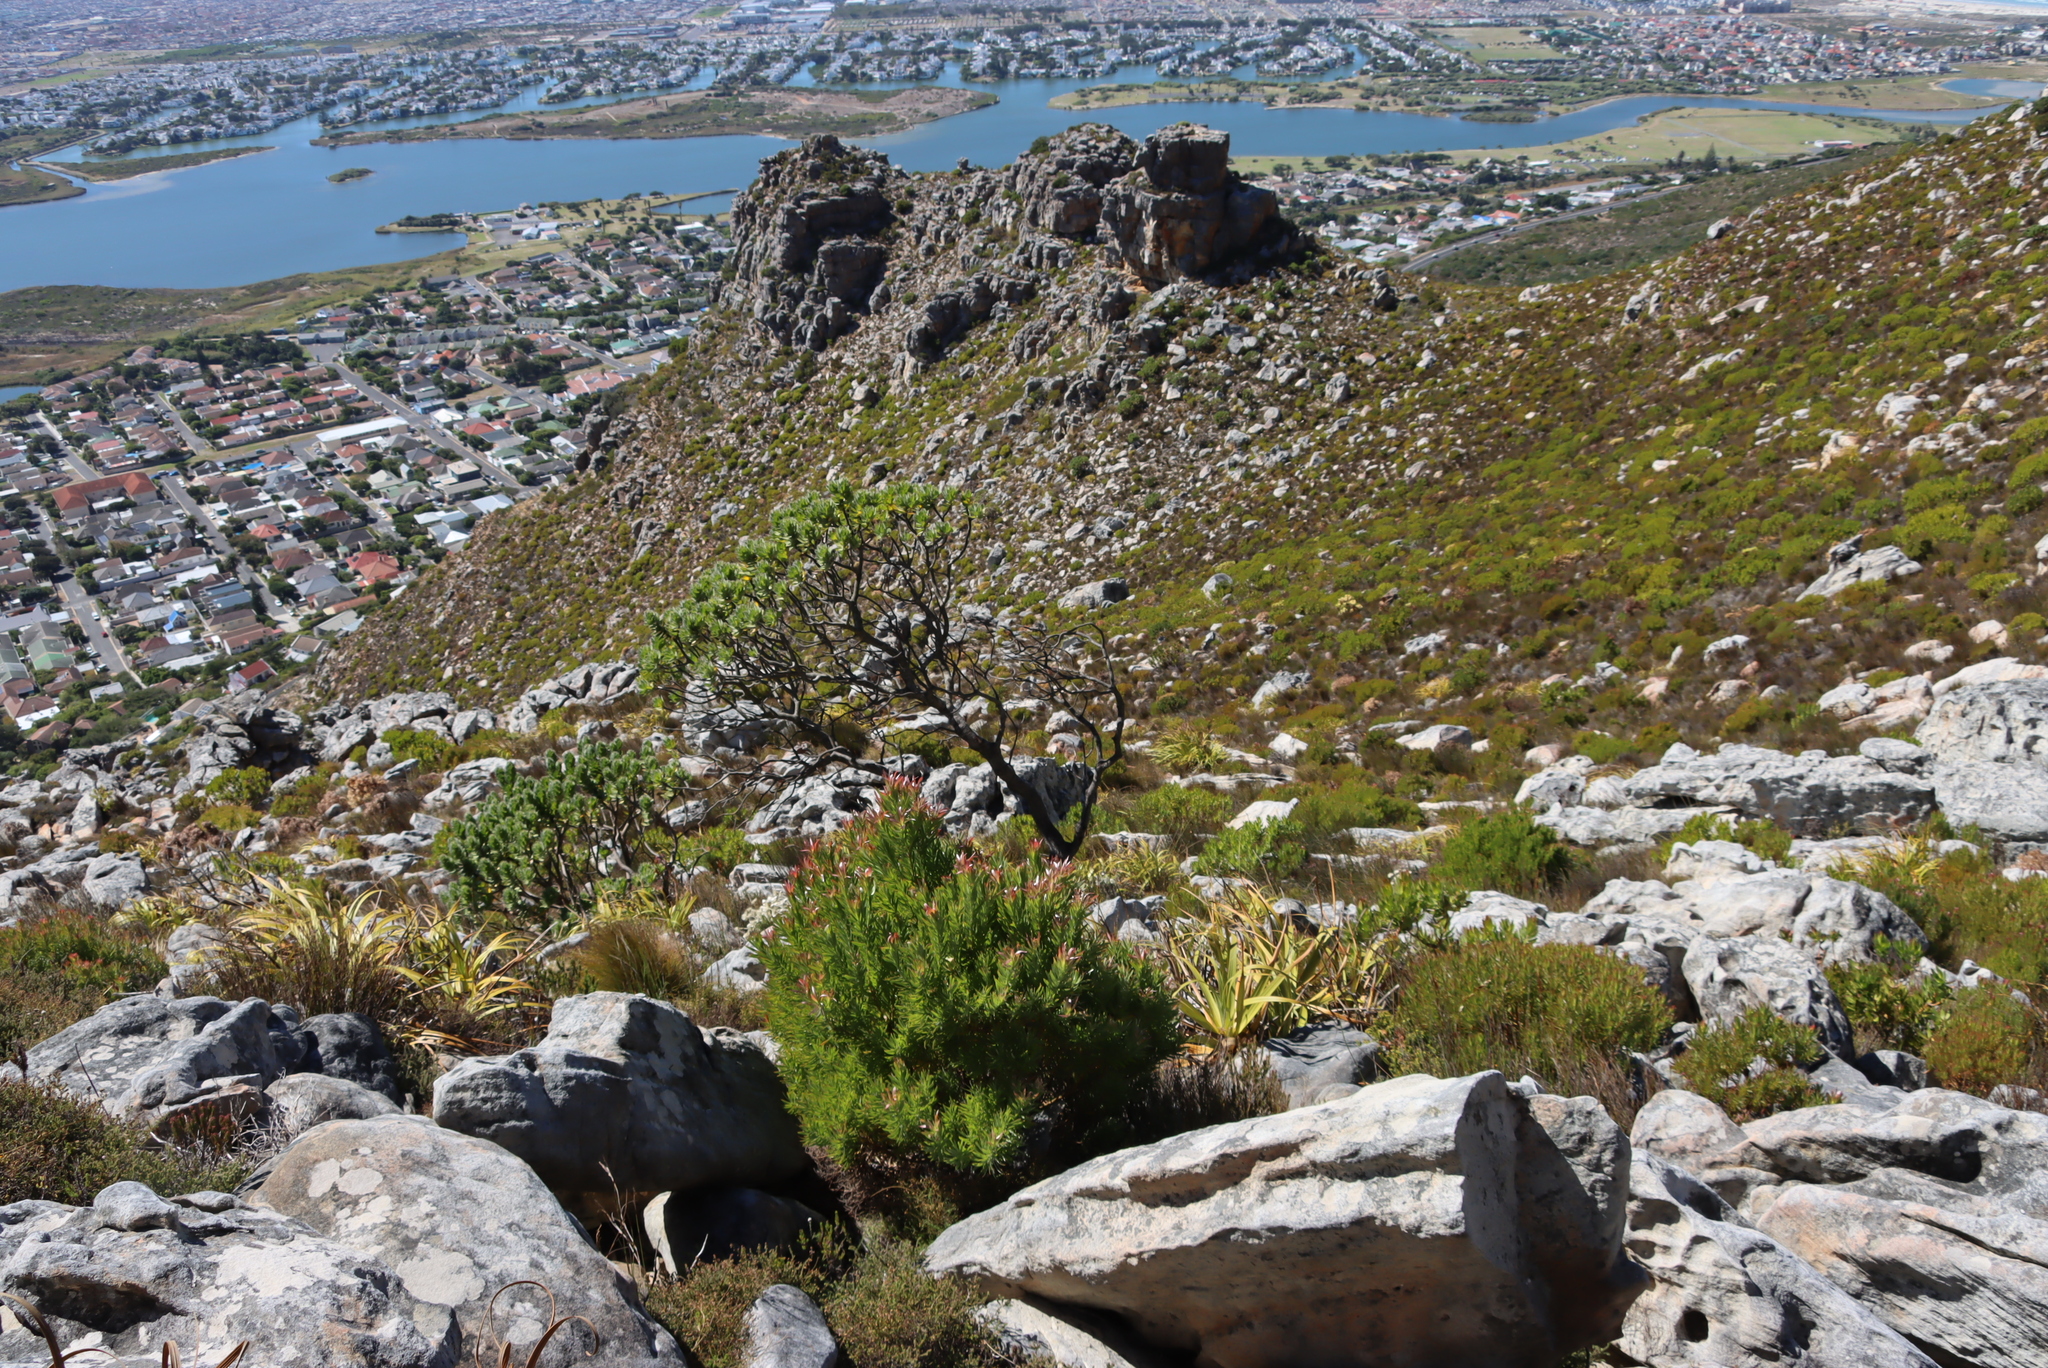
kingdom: Plantae
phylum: Tracheophyta
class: Magnoliopsida
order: Proteales
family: Proteaceae
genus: Leucospermum
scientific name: Leucospermum conocarpodendron
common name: Tree pincushion
